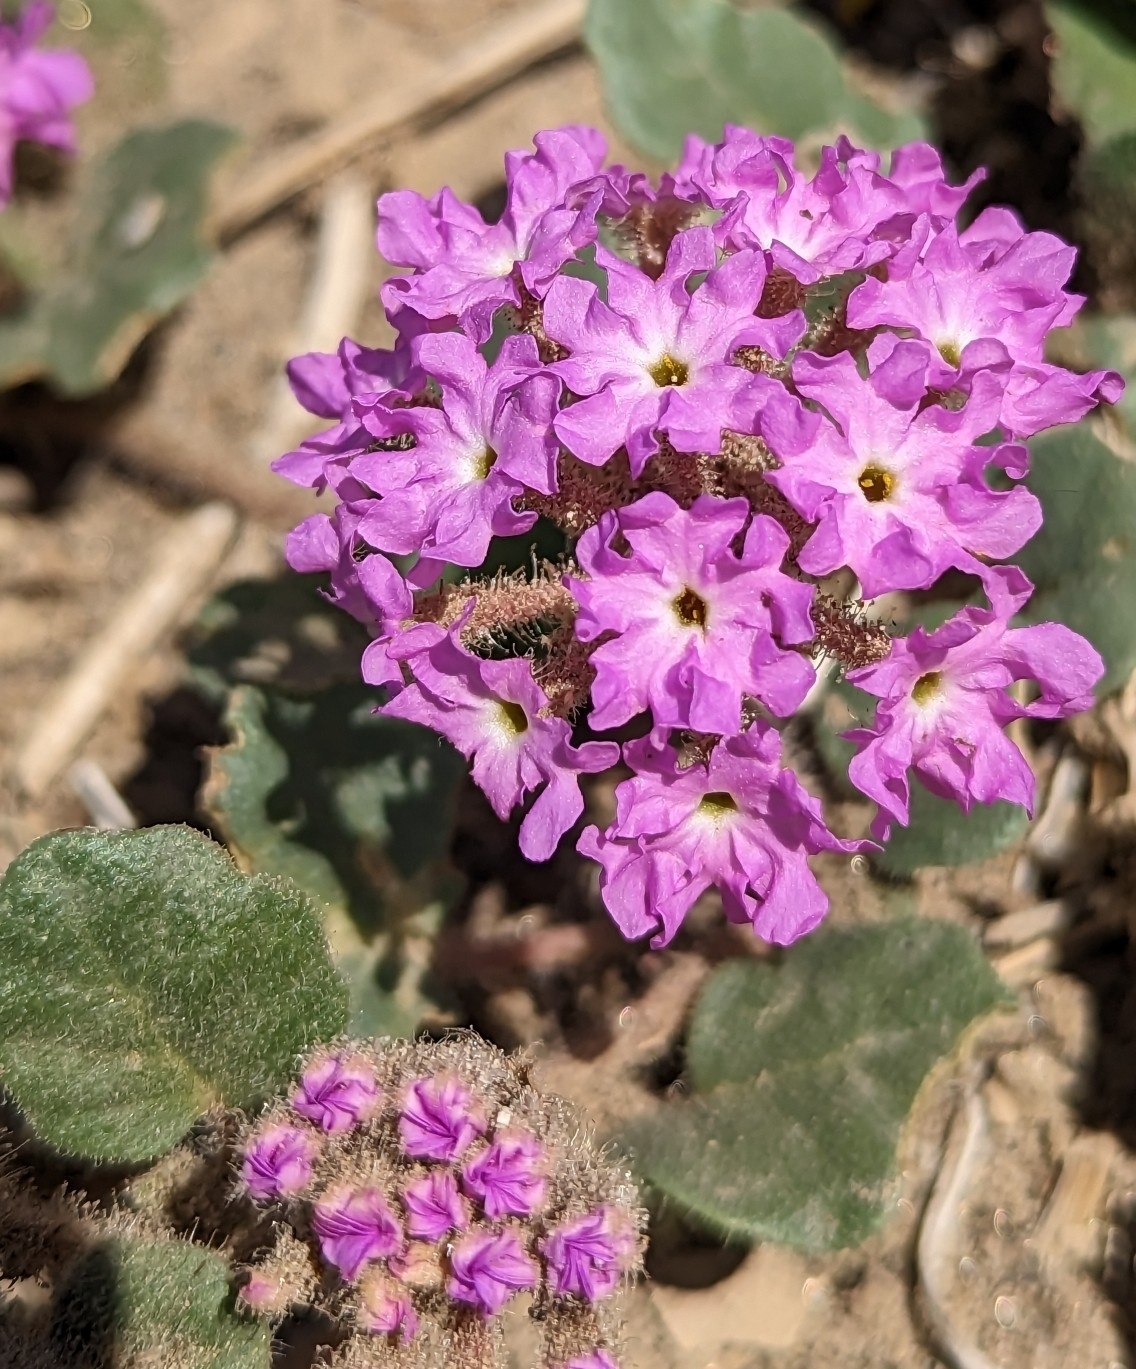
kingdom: Plantae
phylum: Tracheophyta
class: Magnoliopsida
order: Caryophyllales
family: Nyctaginaceae
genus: Abronia
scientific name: Abronia villosa
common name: Desert sand-verbena
